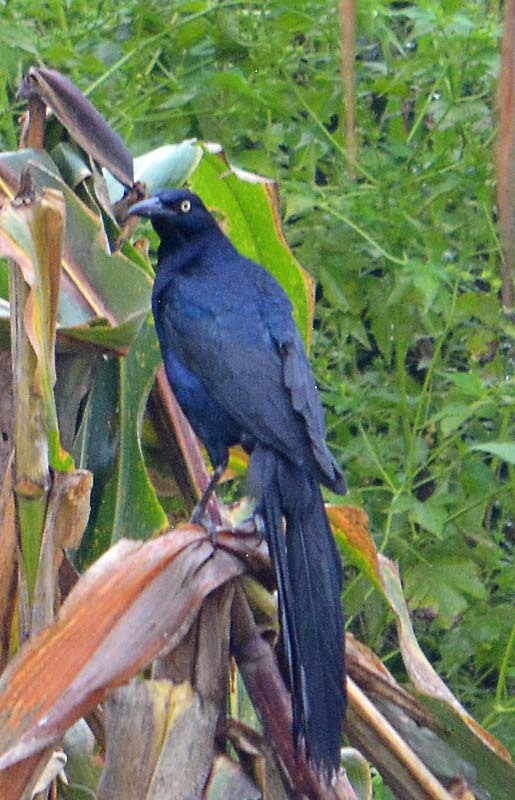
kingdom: Animalia
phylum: Chordata
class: Aves
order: Passeriformes
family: Icteridae
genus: Quiscalus
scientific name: Quiscalus mexicanus
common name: Great-tailed grackle
